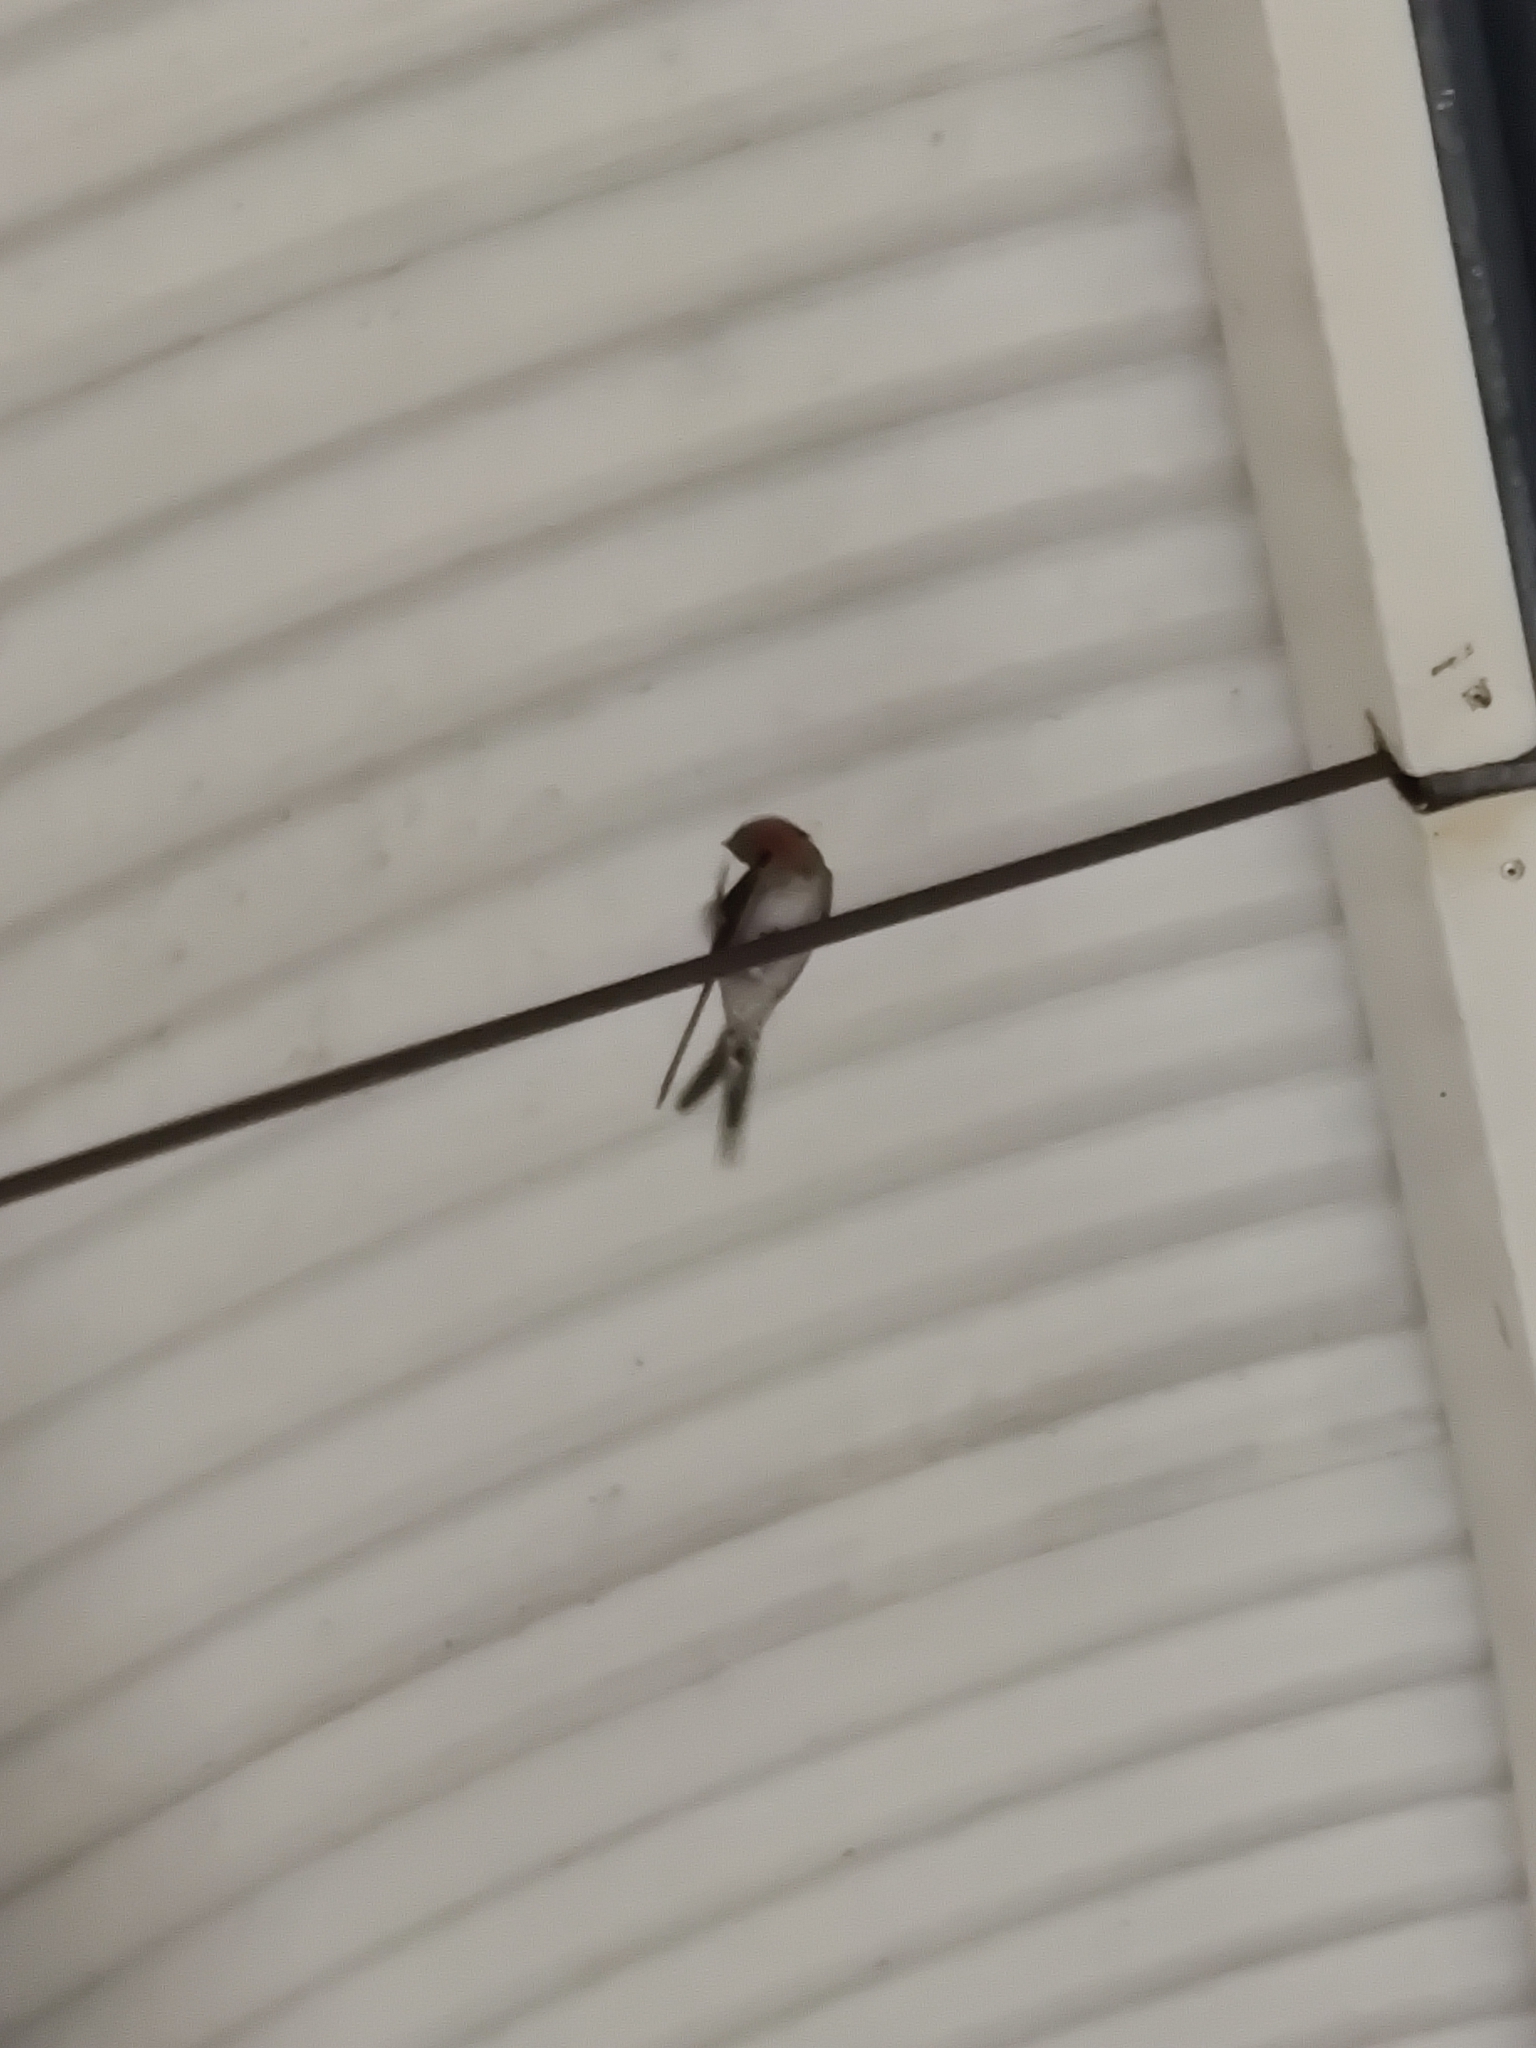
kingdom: Animalia
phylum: Chordata
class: Aves
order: Passeriformes
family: Hirundinidae
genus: Hirundo
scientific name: Hirundo neoxena
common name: Welcome swallow
